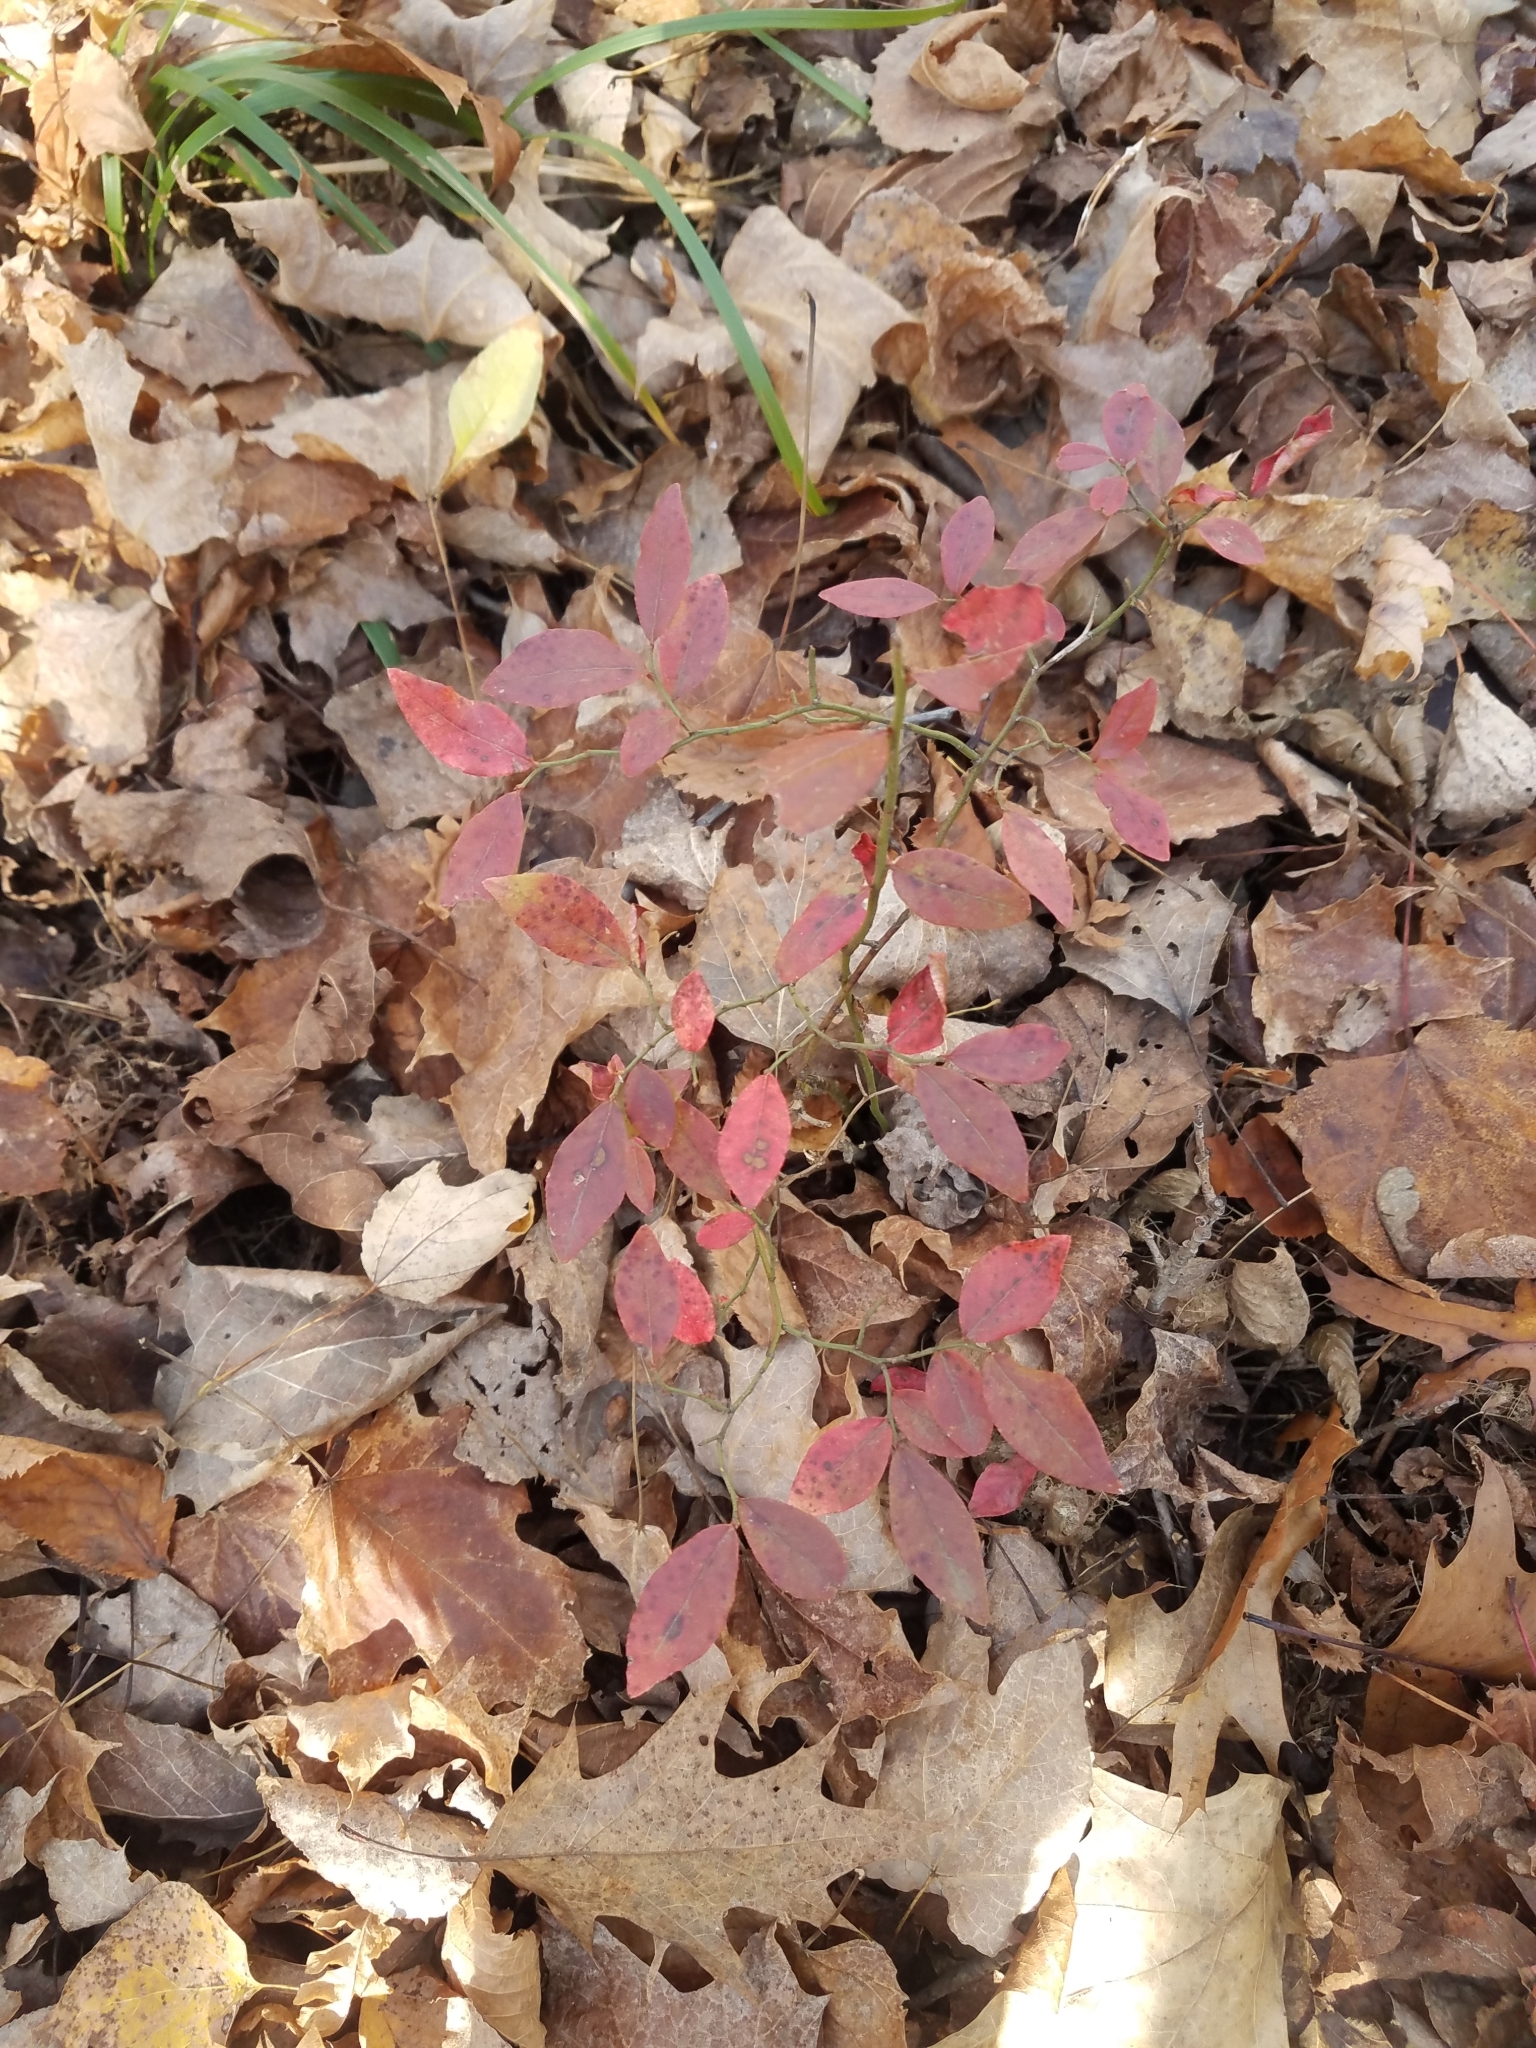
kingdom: Plantae
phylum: Tracheophyta
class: Magnoliopsida
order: Ericales
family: Ericaceae
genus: Vaccinium
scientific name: Vaccinium angustifolium
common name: Early lowbush blueberry
